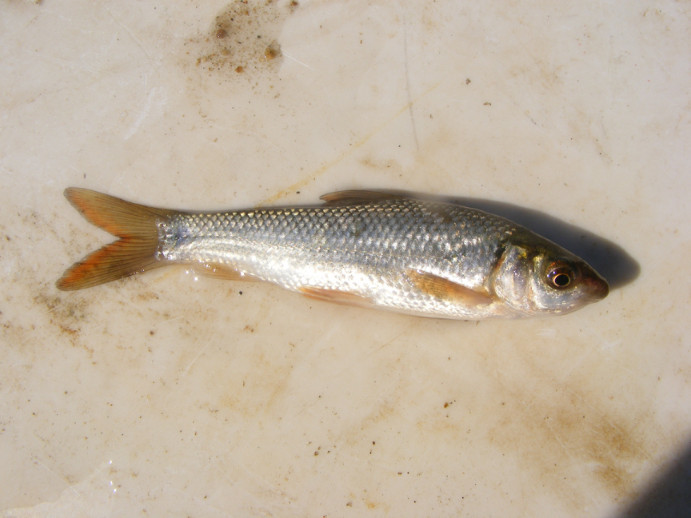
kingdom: Animalia
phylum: Chordata
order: Cypriniformes
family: Cyprinidae
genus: Labeo
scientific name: Labeo ruddi
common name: Silver labeo
